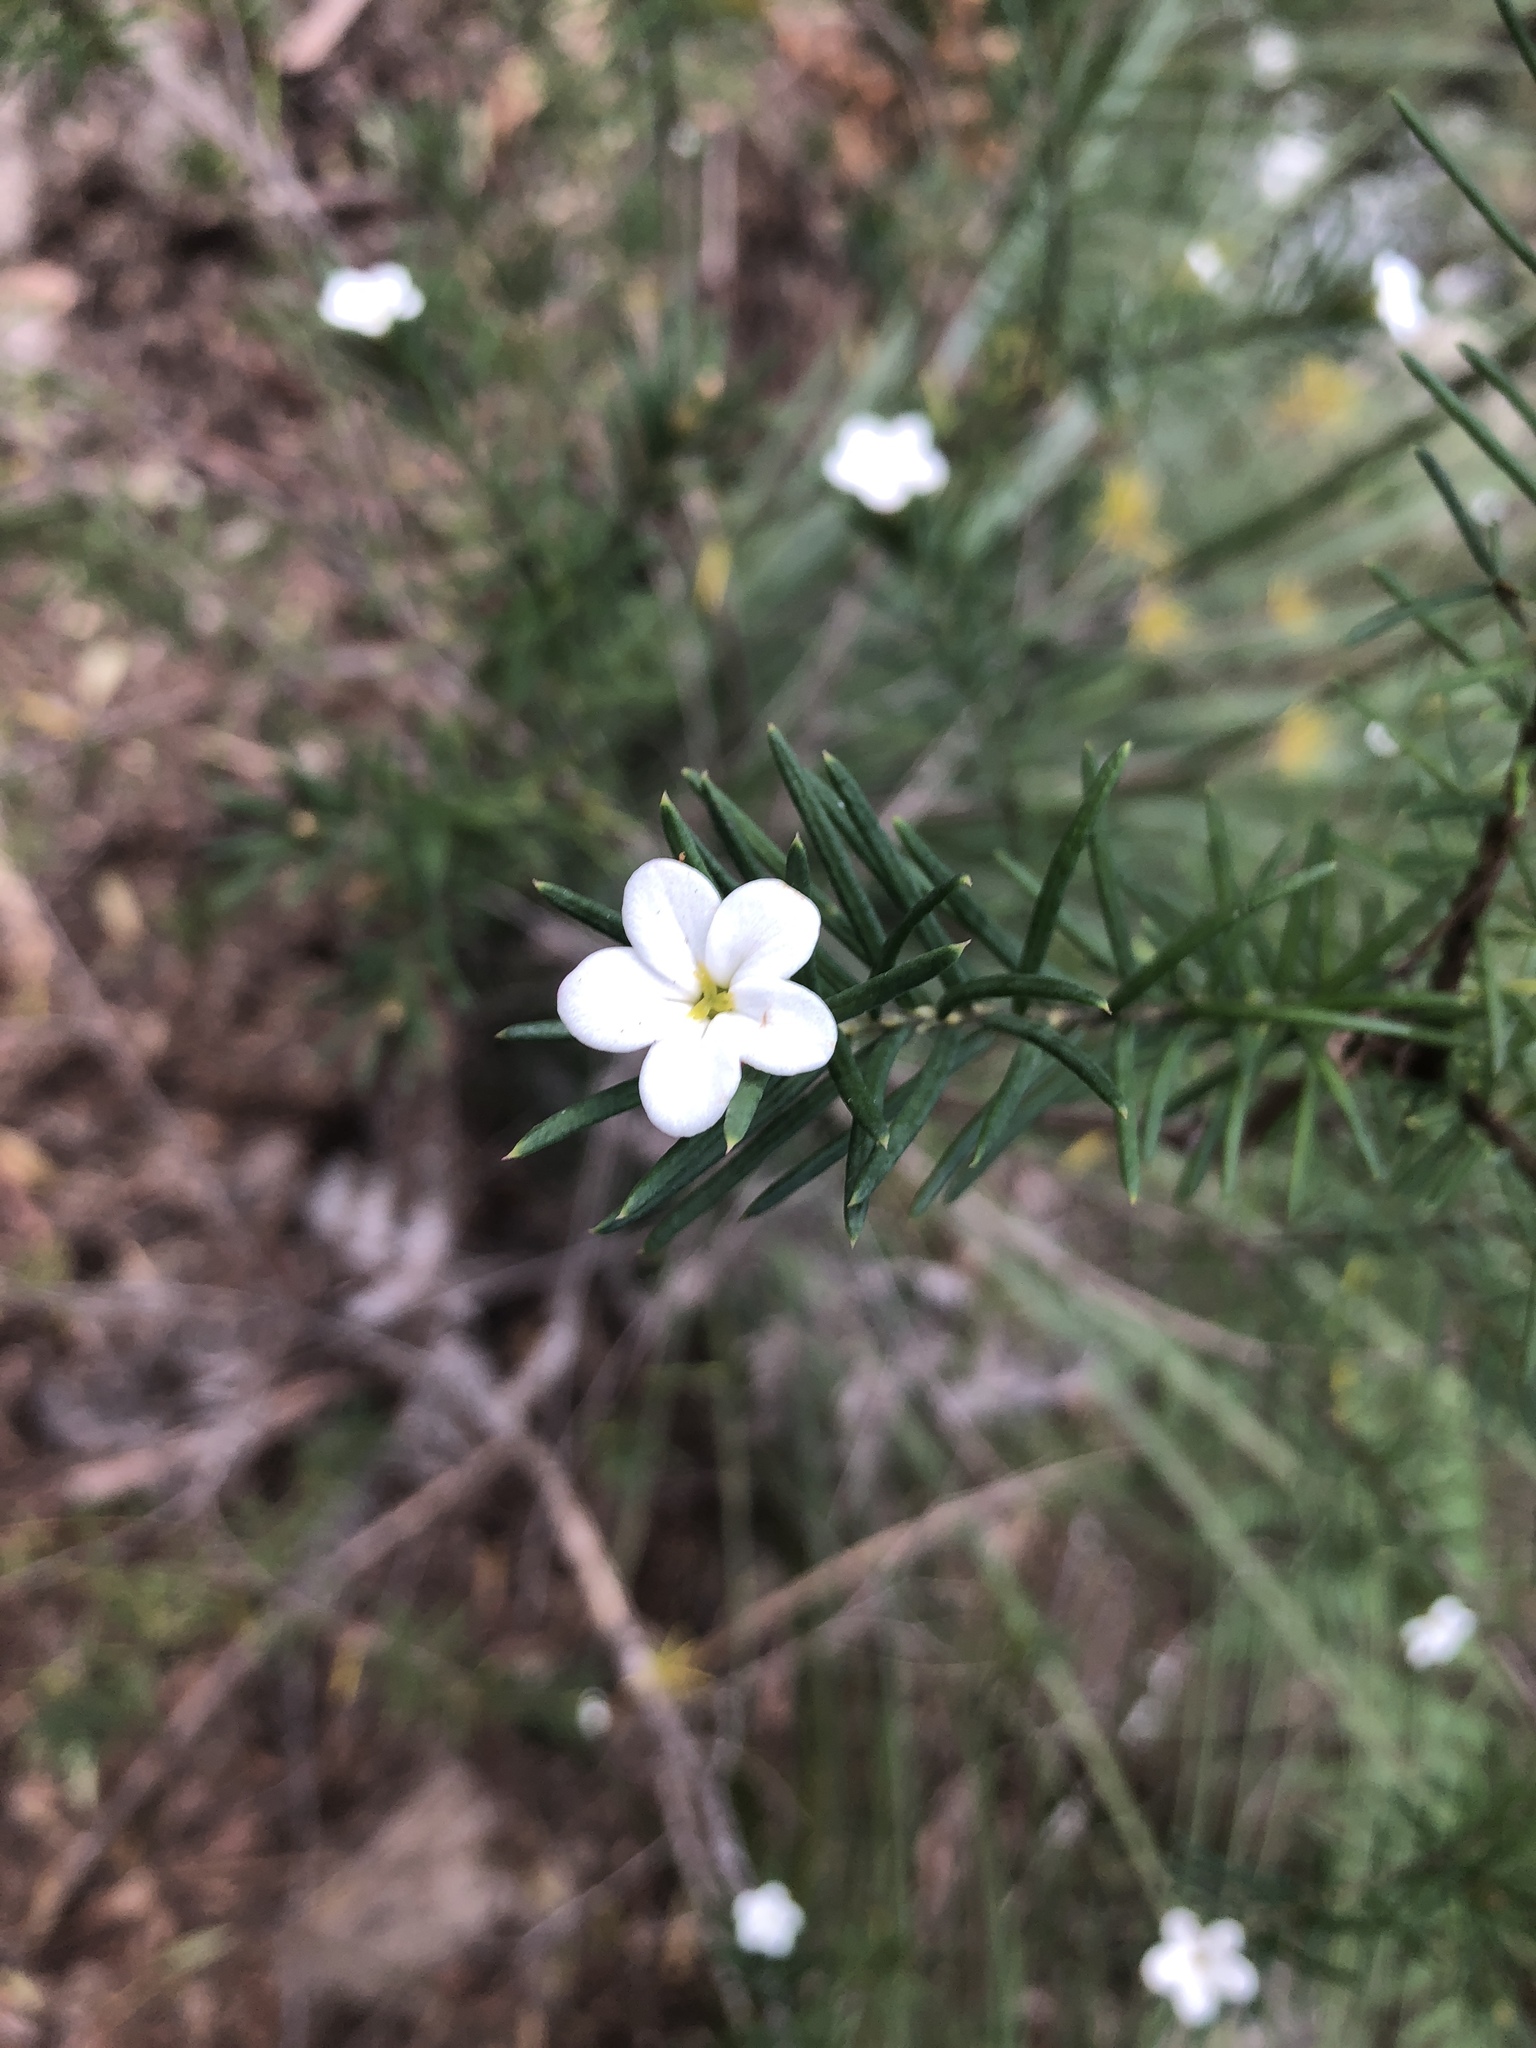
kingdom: Plantae
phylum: Tracheophyta
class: Magnoliopsida
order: Malpighiales
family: Euphorbiaceae
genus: Ricinocarpos
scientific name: Ricinocarpos pinifolius
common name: Weddingbush
